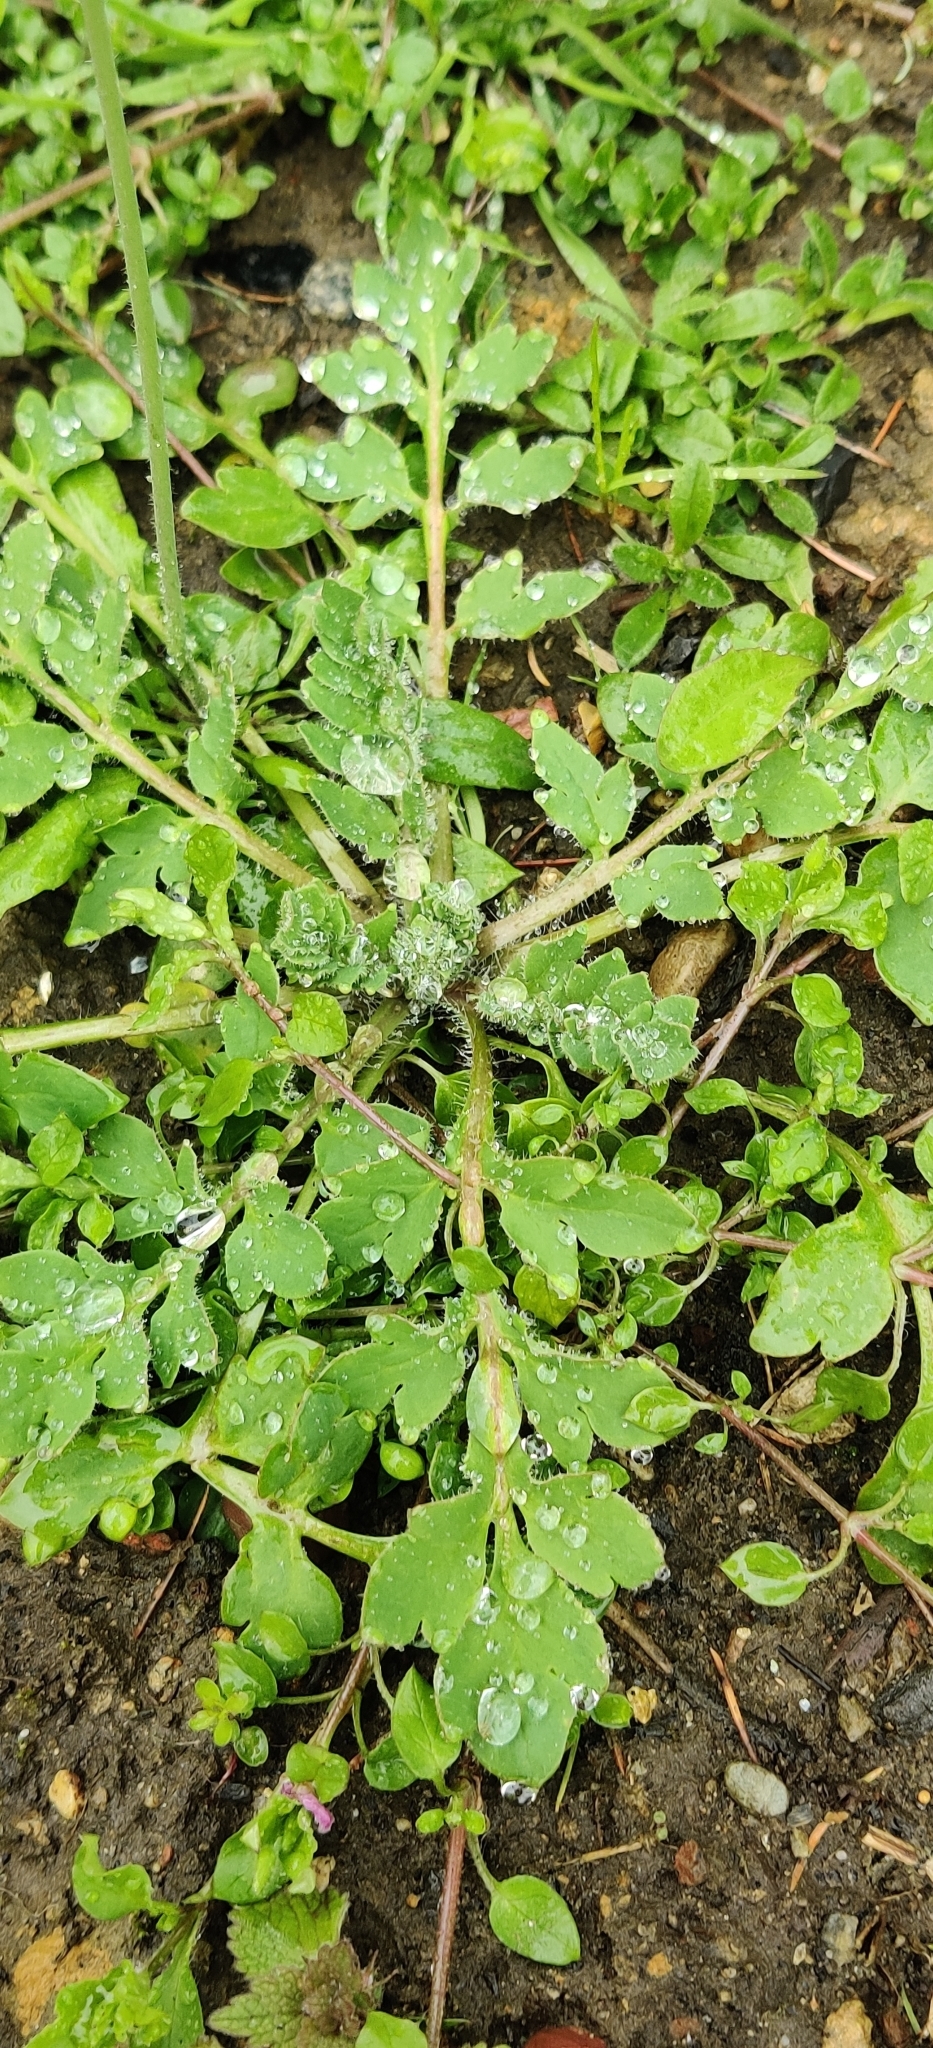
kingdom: Plantae
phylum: Tracheophyta
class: Magnoliopsida
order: Ranunculales
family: Papaveraceae
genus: Papaver
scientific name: Papaver dubium
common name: Long-headed poppy
